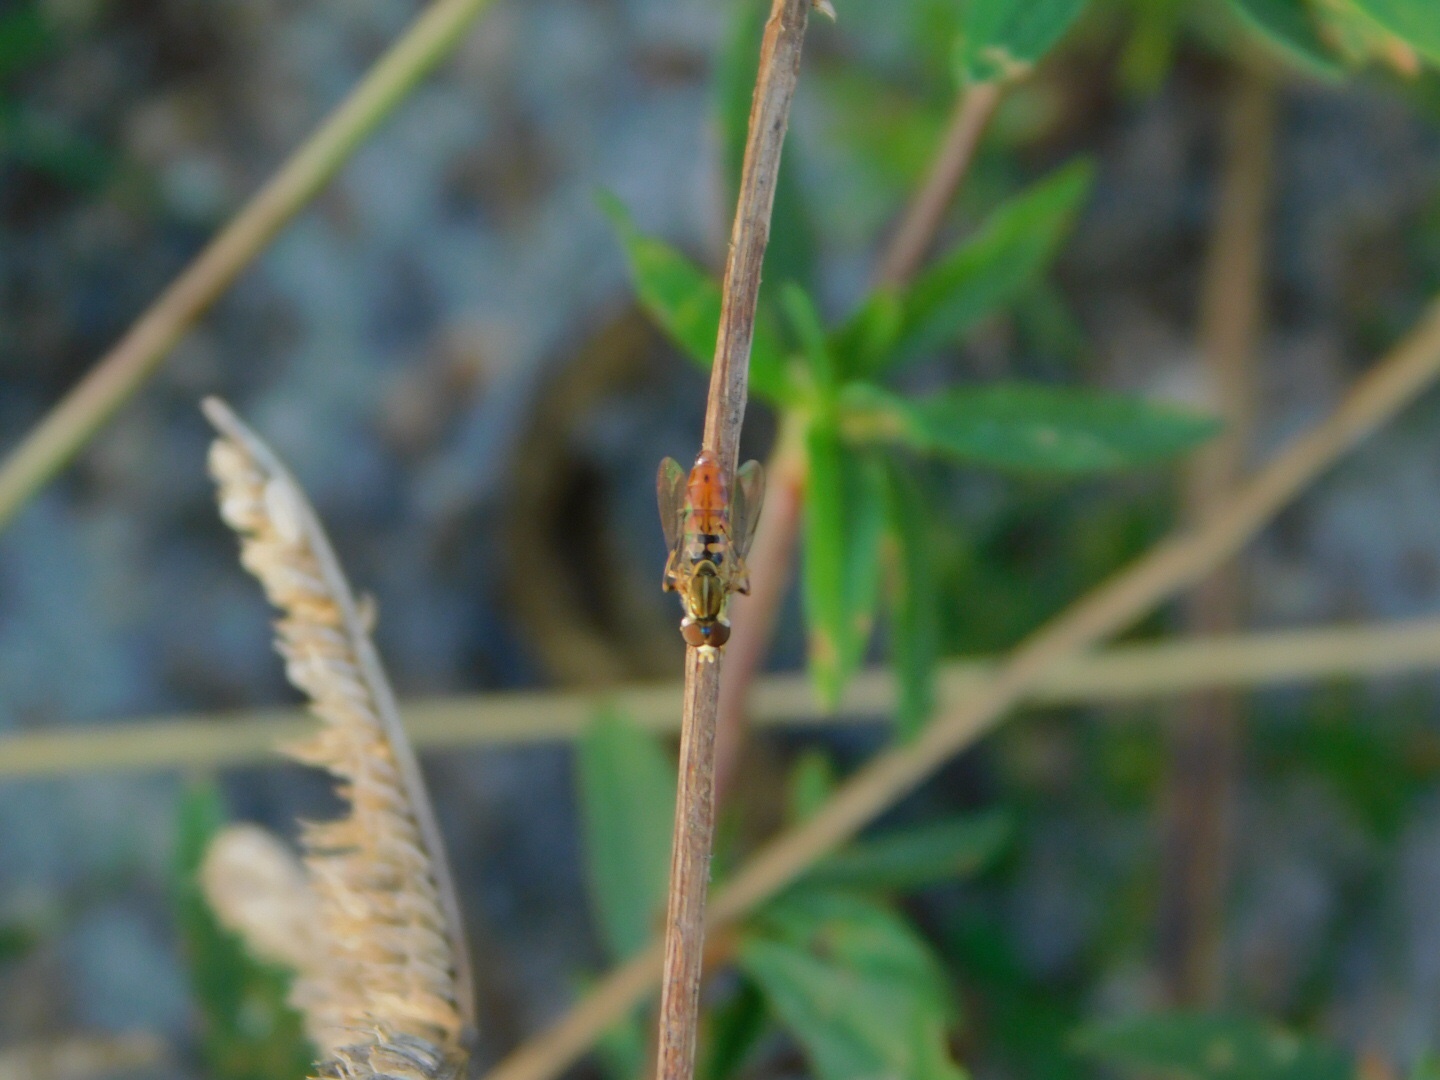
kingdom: Animalia
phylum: Arthropoda
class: Insecta
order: Diptera
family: Syrphidae
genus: Toxomerus
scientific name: Toxomerus floralis
